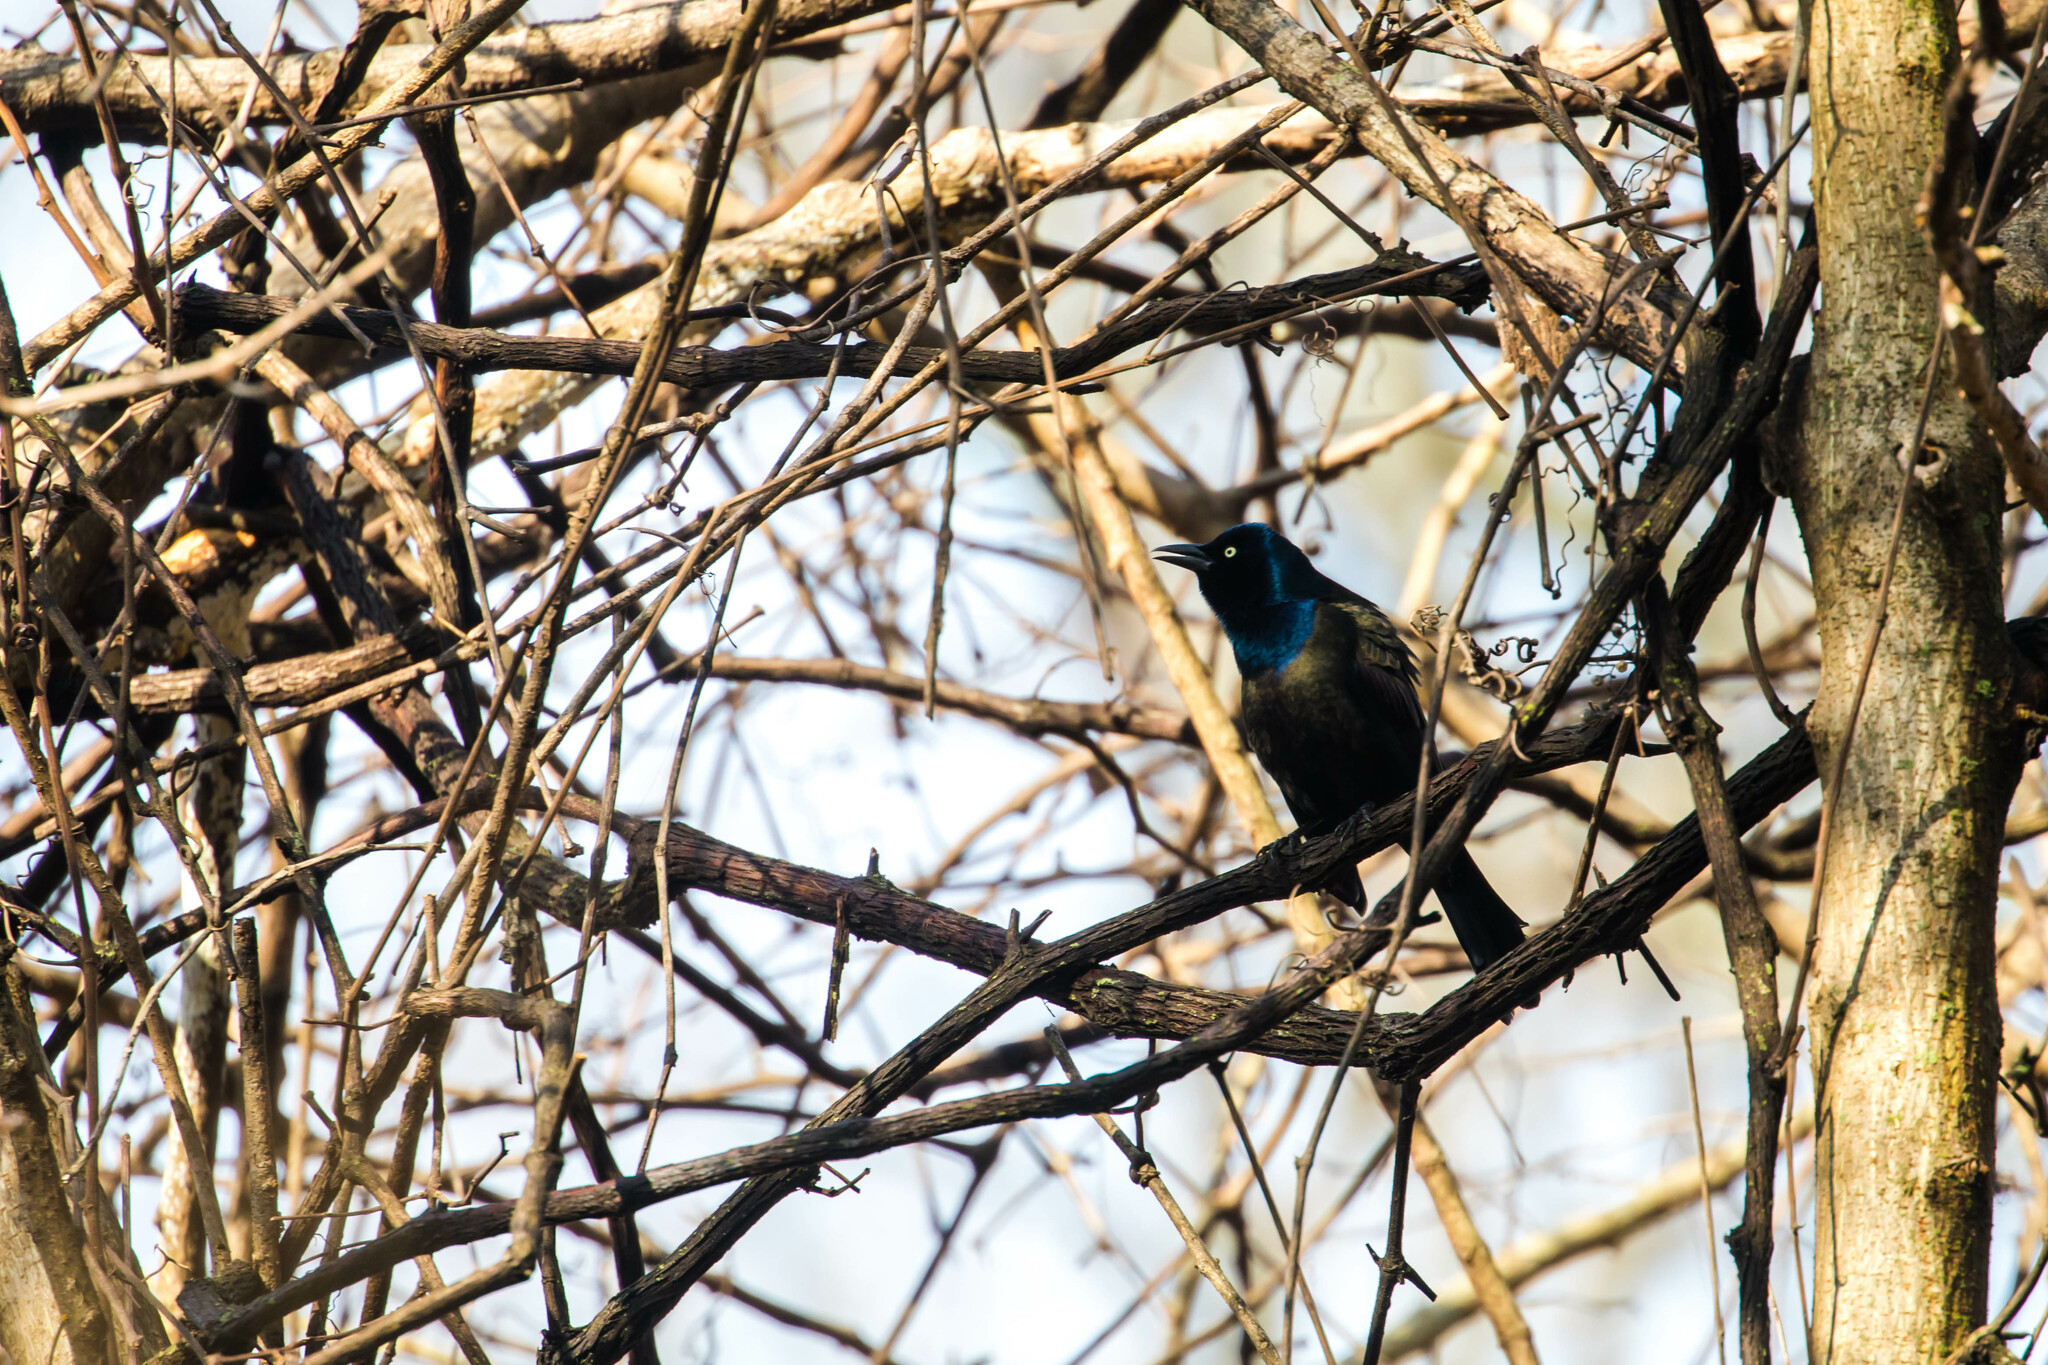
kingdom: Animalia
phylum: Chordata
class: Aves
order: Passeriformes
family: Icteridae
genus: Quiscalus
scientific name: Quiscalus quiscula
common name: Common grackle
